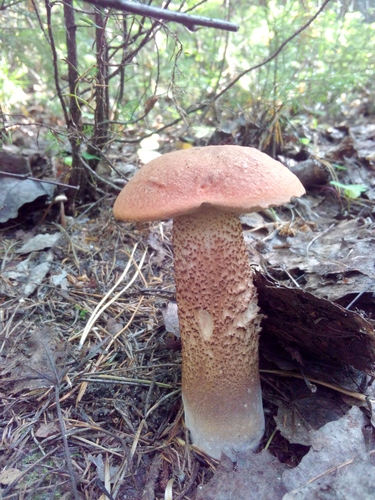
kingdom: Fungi
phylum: Basidiomycota
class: Agaricomycetes
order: Boletales
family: Boletaceae
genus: Leccinum
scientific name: Leccinum aurantiacum
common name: Orange bolete
